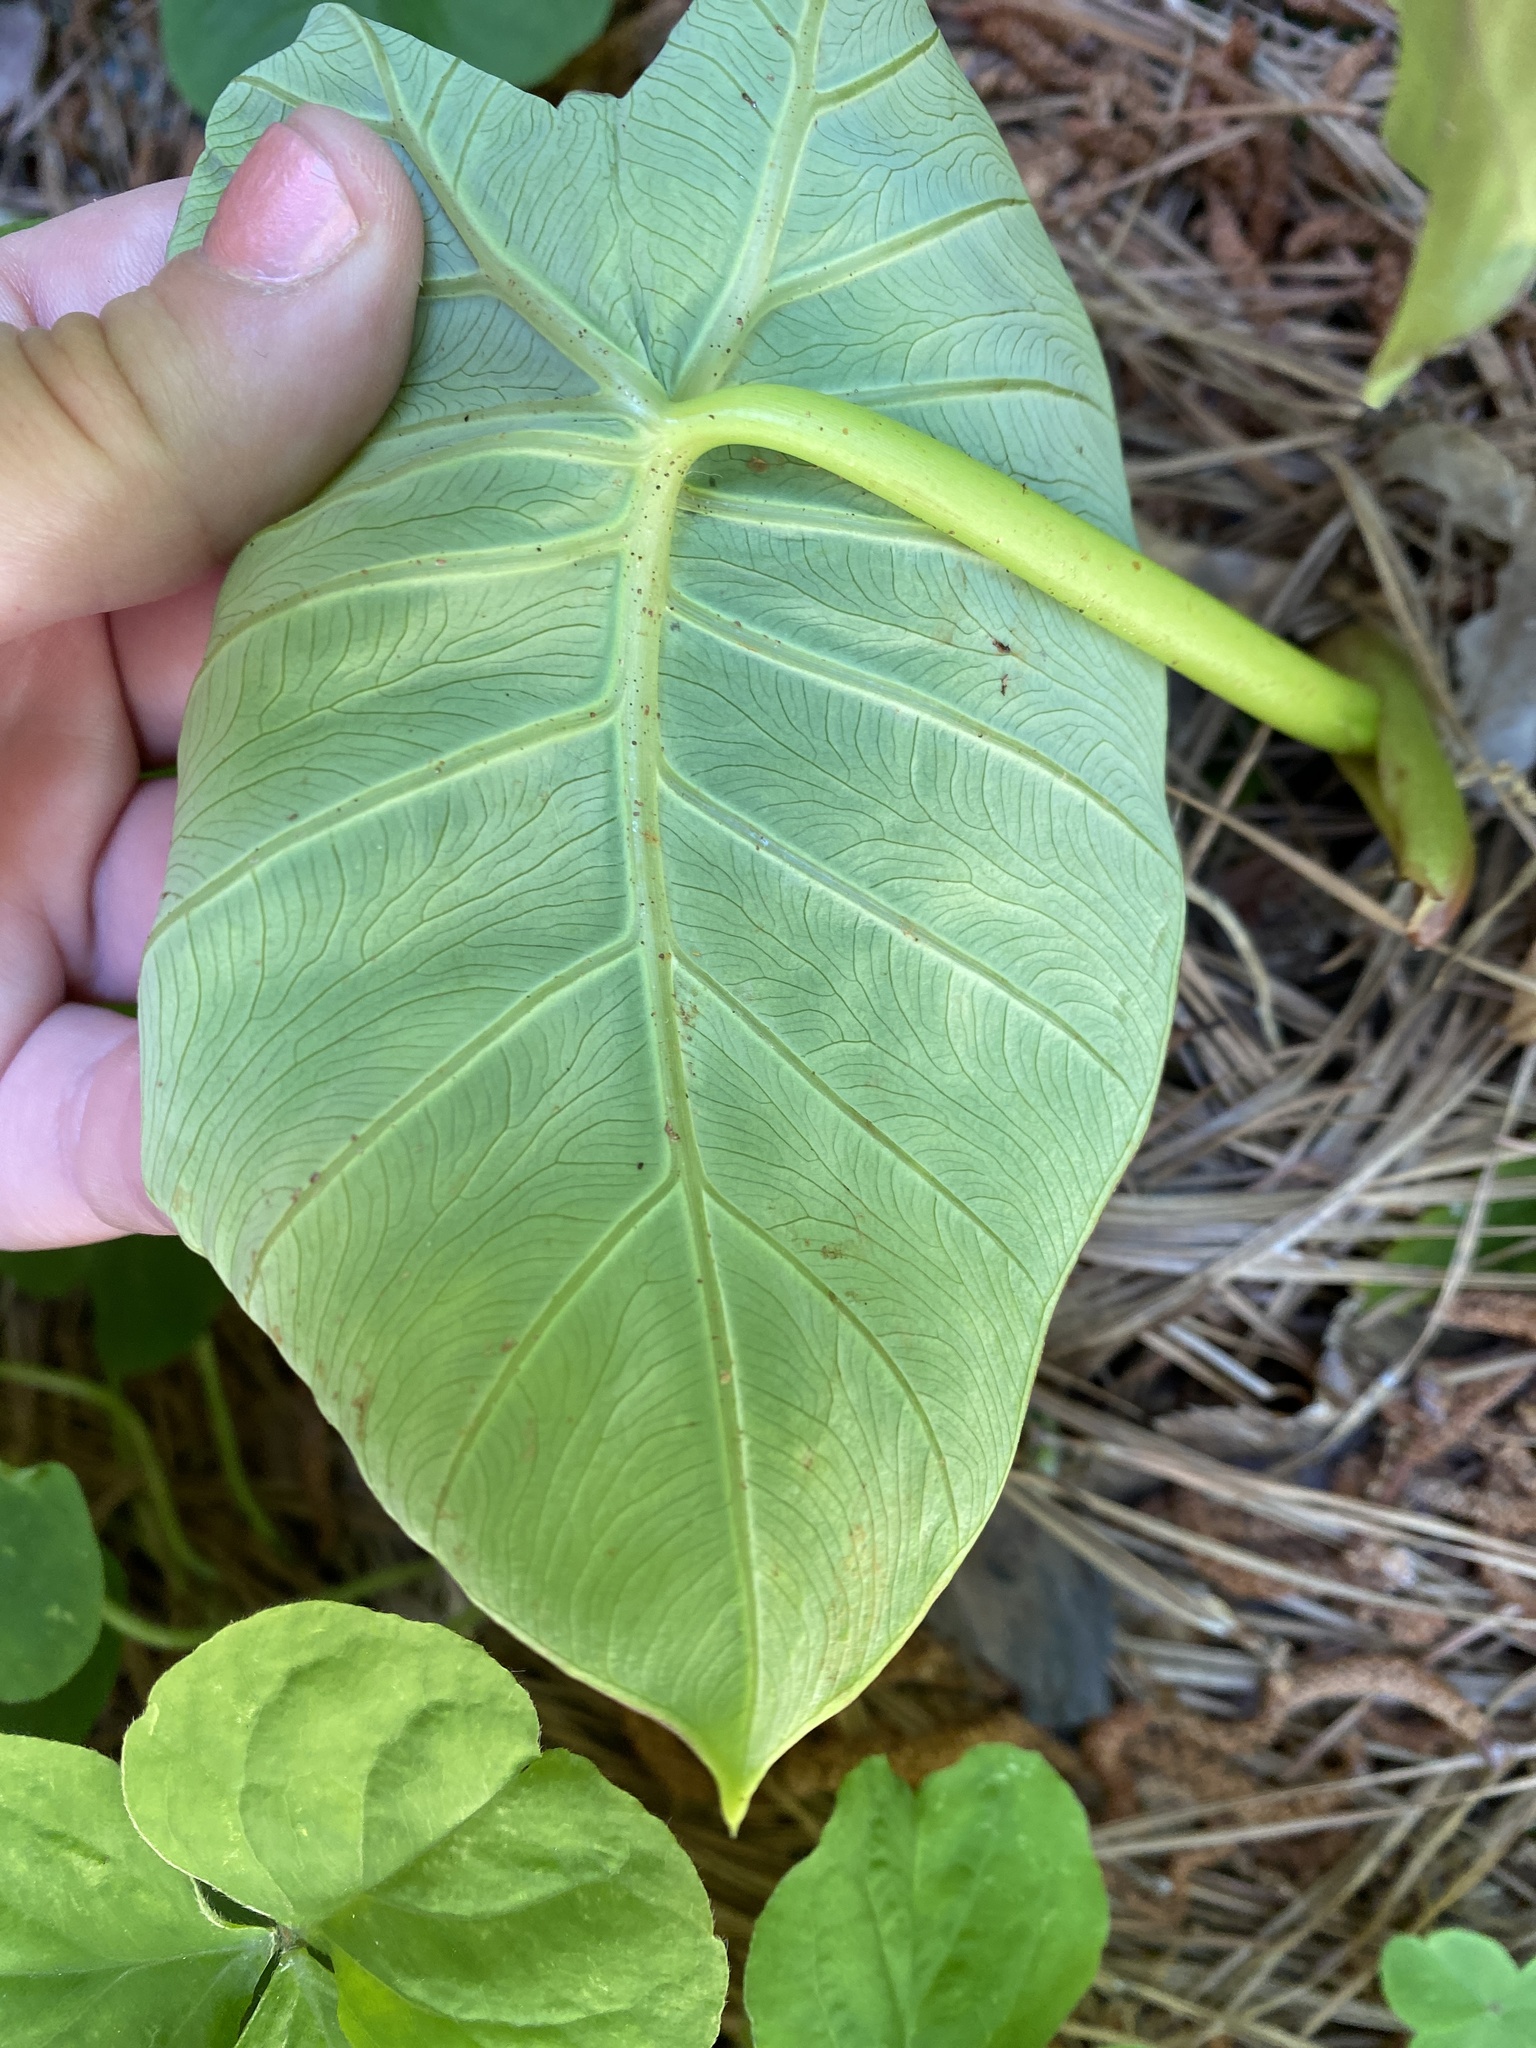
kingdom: Plantae
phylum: Tracheophyta
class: Liliopsida
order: Alismatales
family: Araceae
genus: Colocasia
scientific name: Colocasia esculenta
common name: Taro
